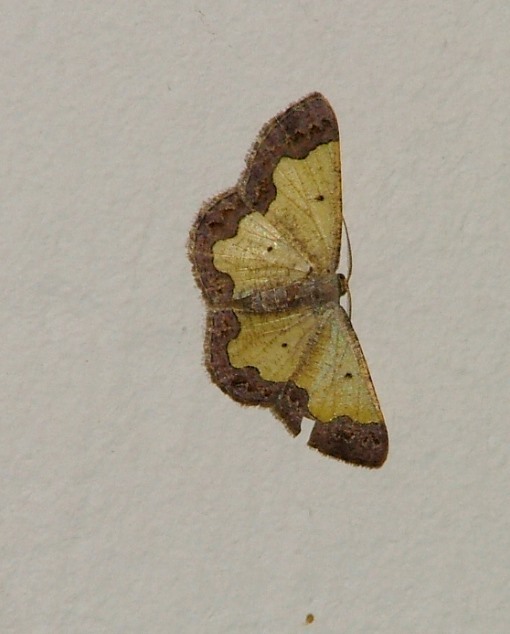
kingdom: Animalia
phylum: Arthropoda
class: Insecta
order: Lepidoptera
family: Geometridae
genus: Zamarada
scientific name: Zamarada plana
